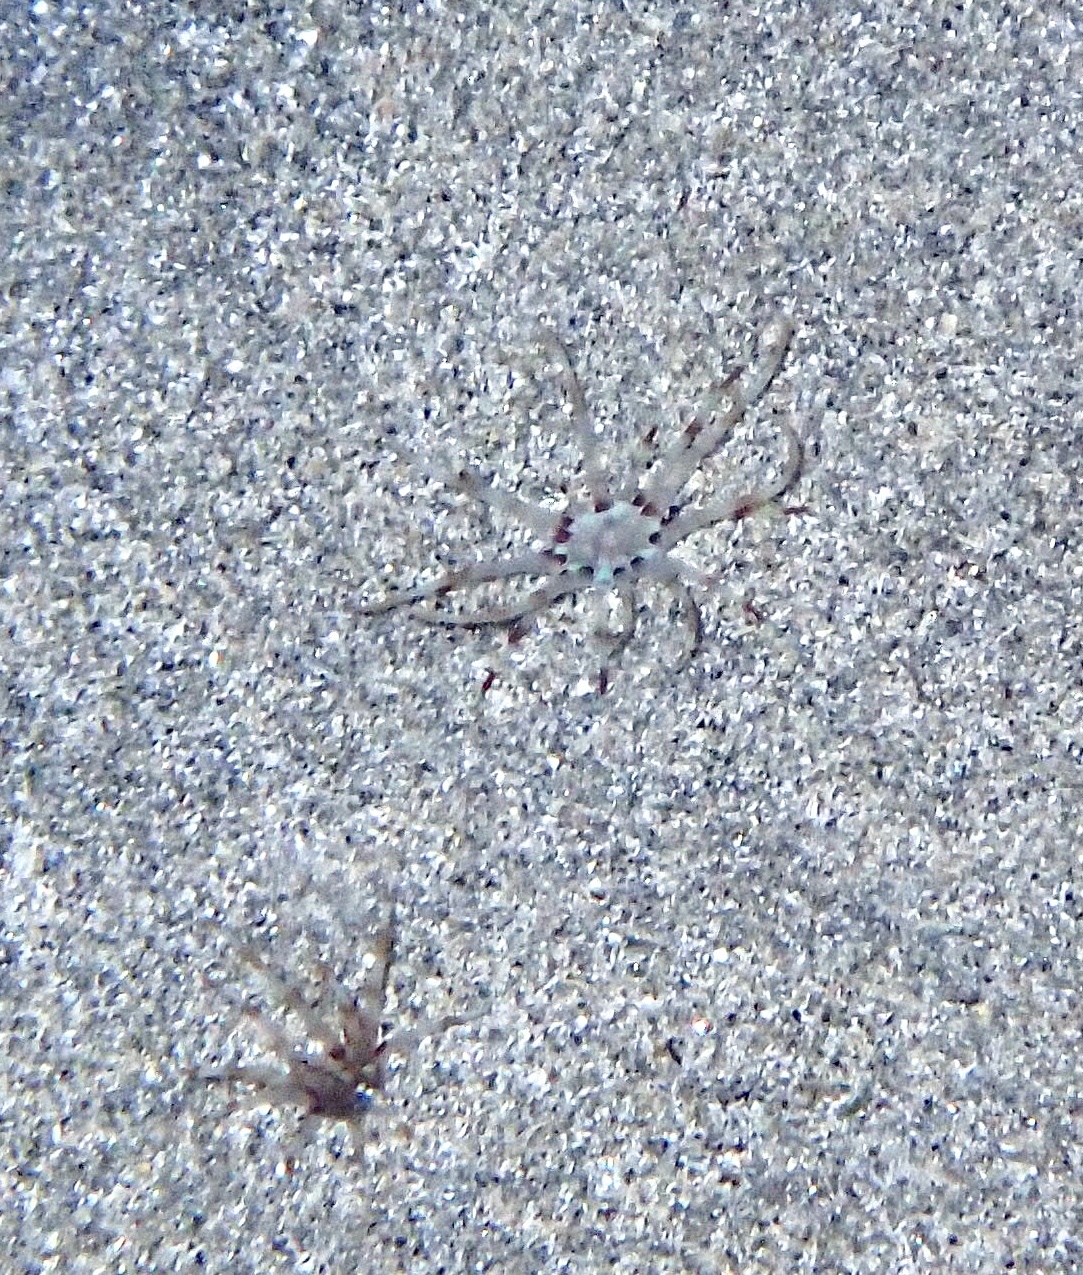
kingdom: Animalia
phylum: Cnidaria
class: Anthozoa
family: Arachnactidae
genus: Arachnanthus
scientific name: Arachnanthus lilith
